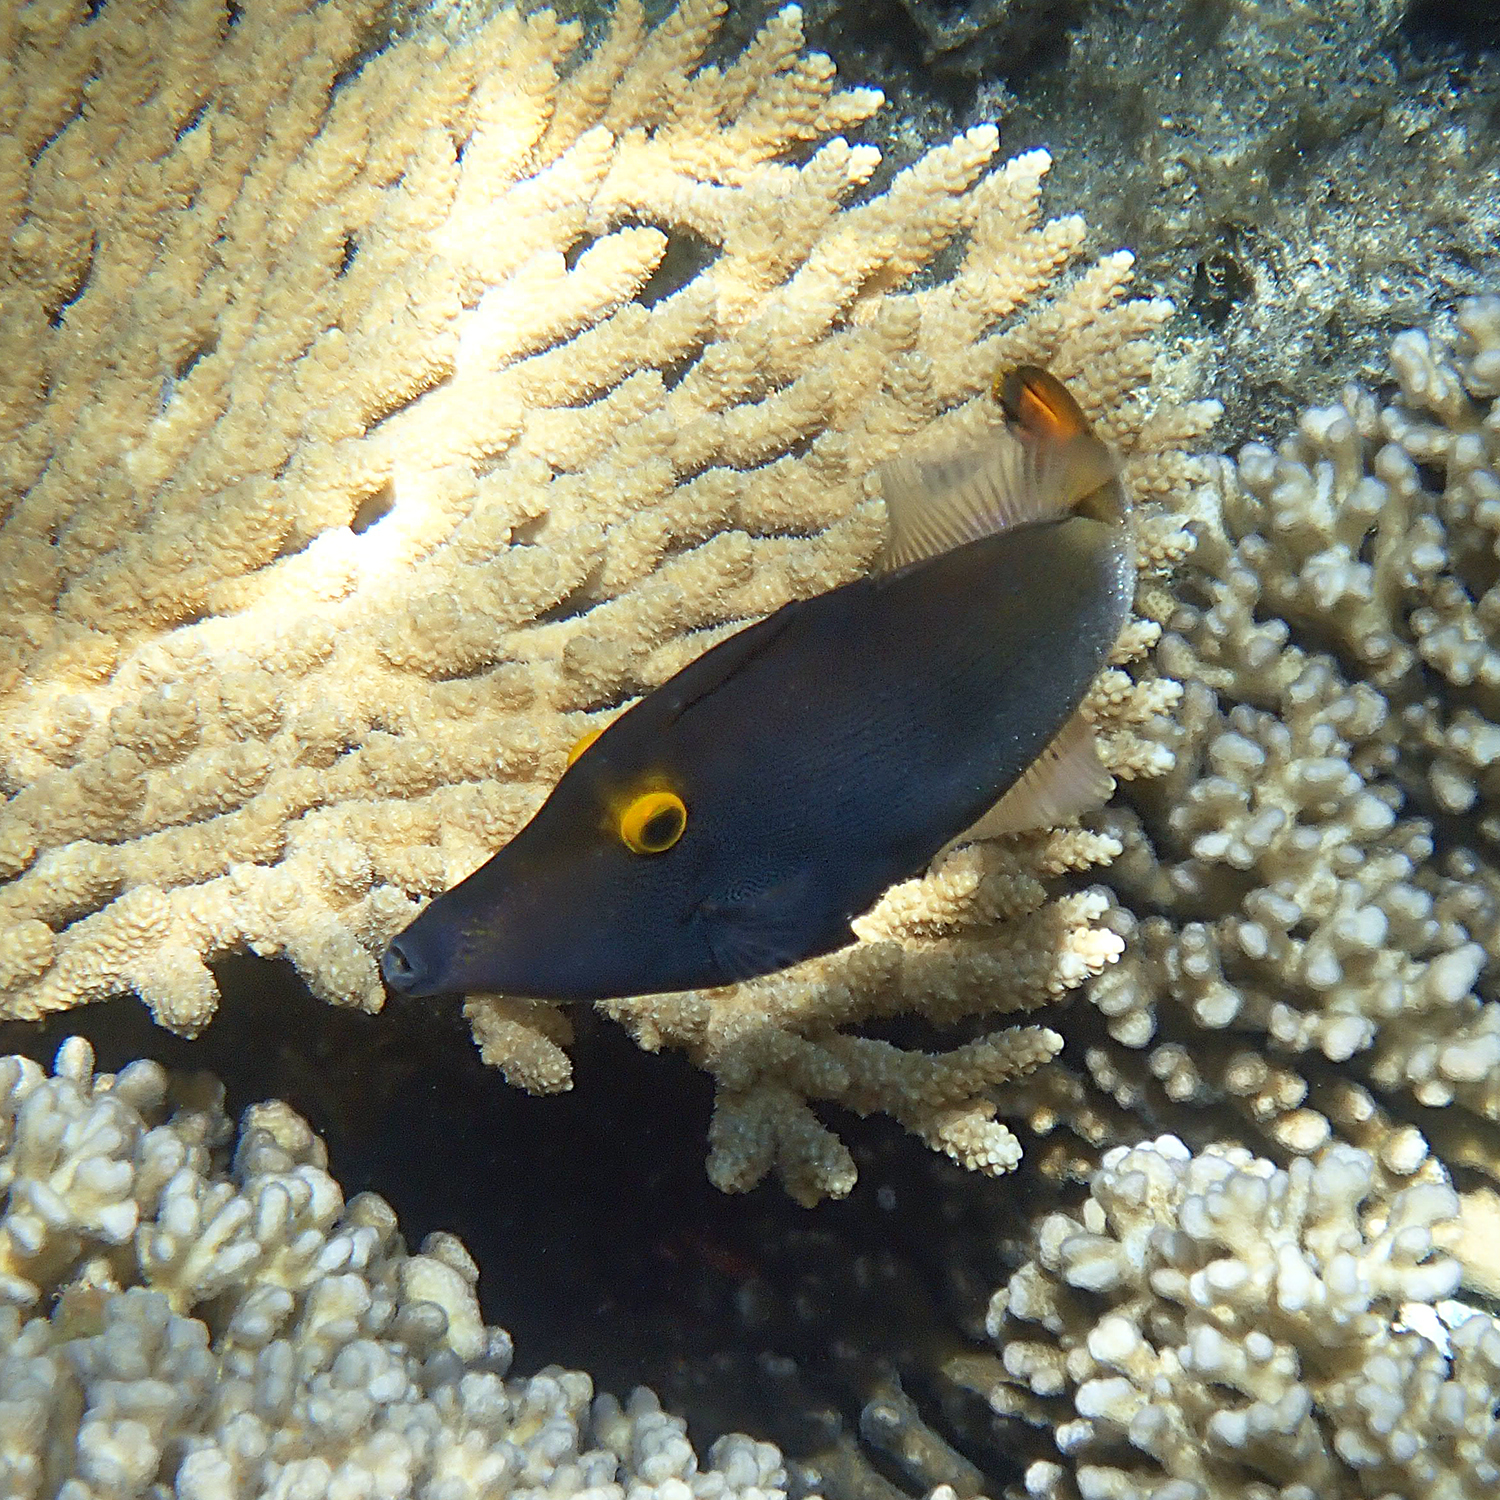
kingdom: Animalia
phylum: Chordata
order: Tetraodontiformes
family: Monacanthidae
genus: Pervagor
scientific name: Pervagor alternans
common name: Yelloweye filefish
